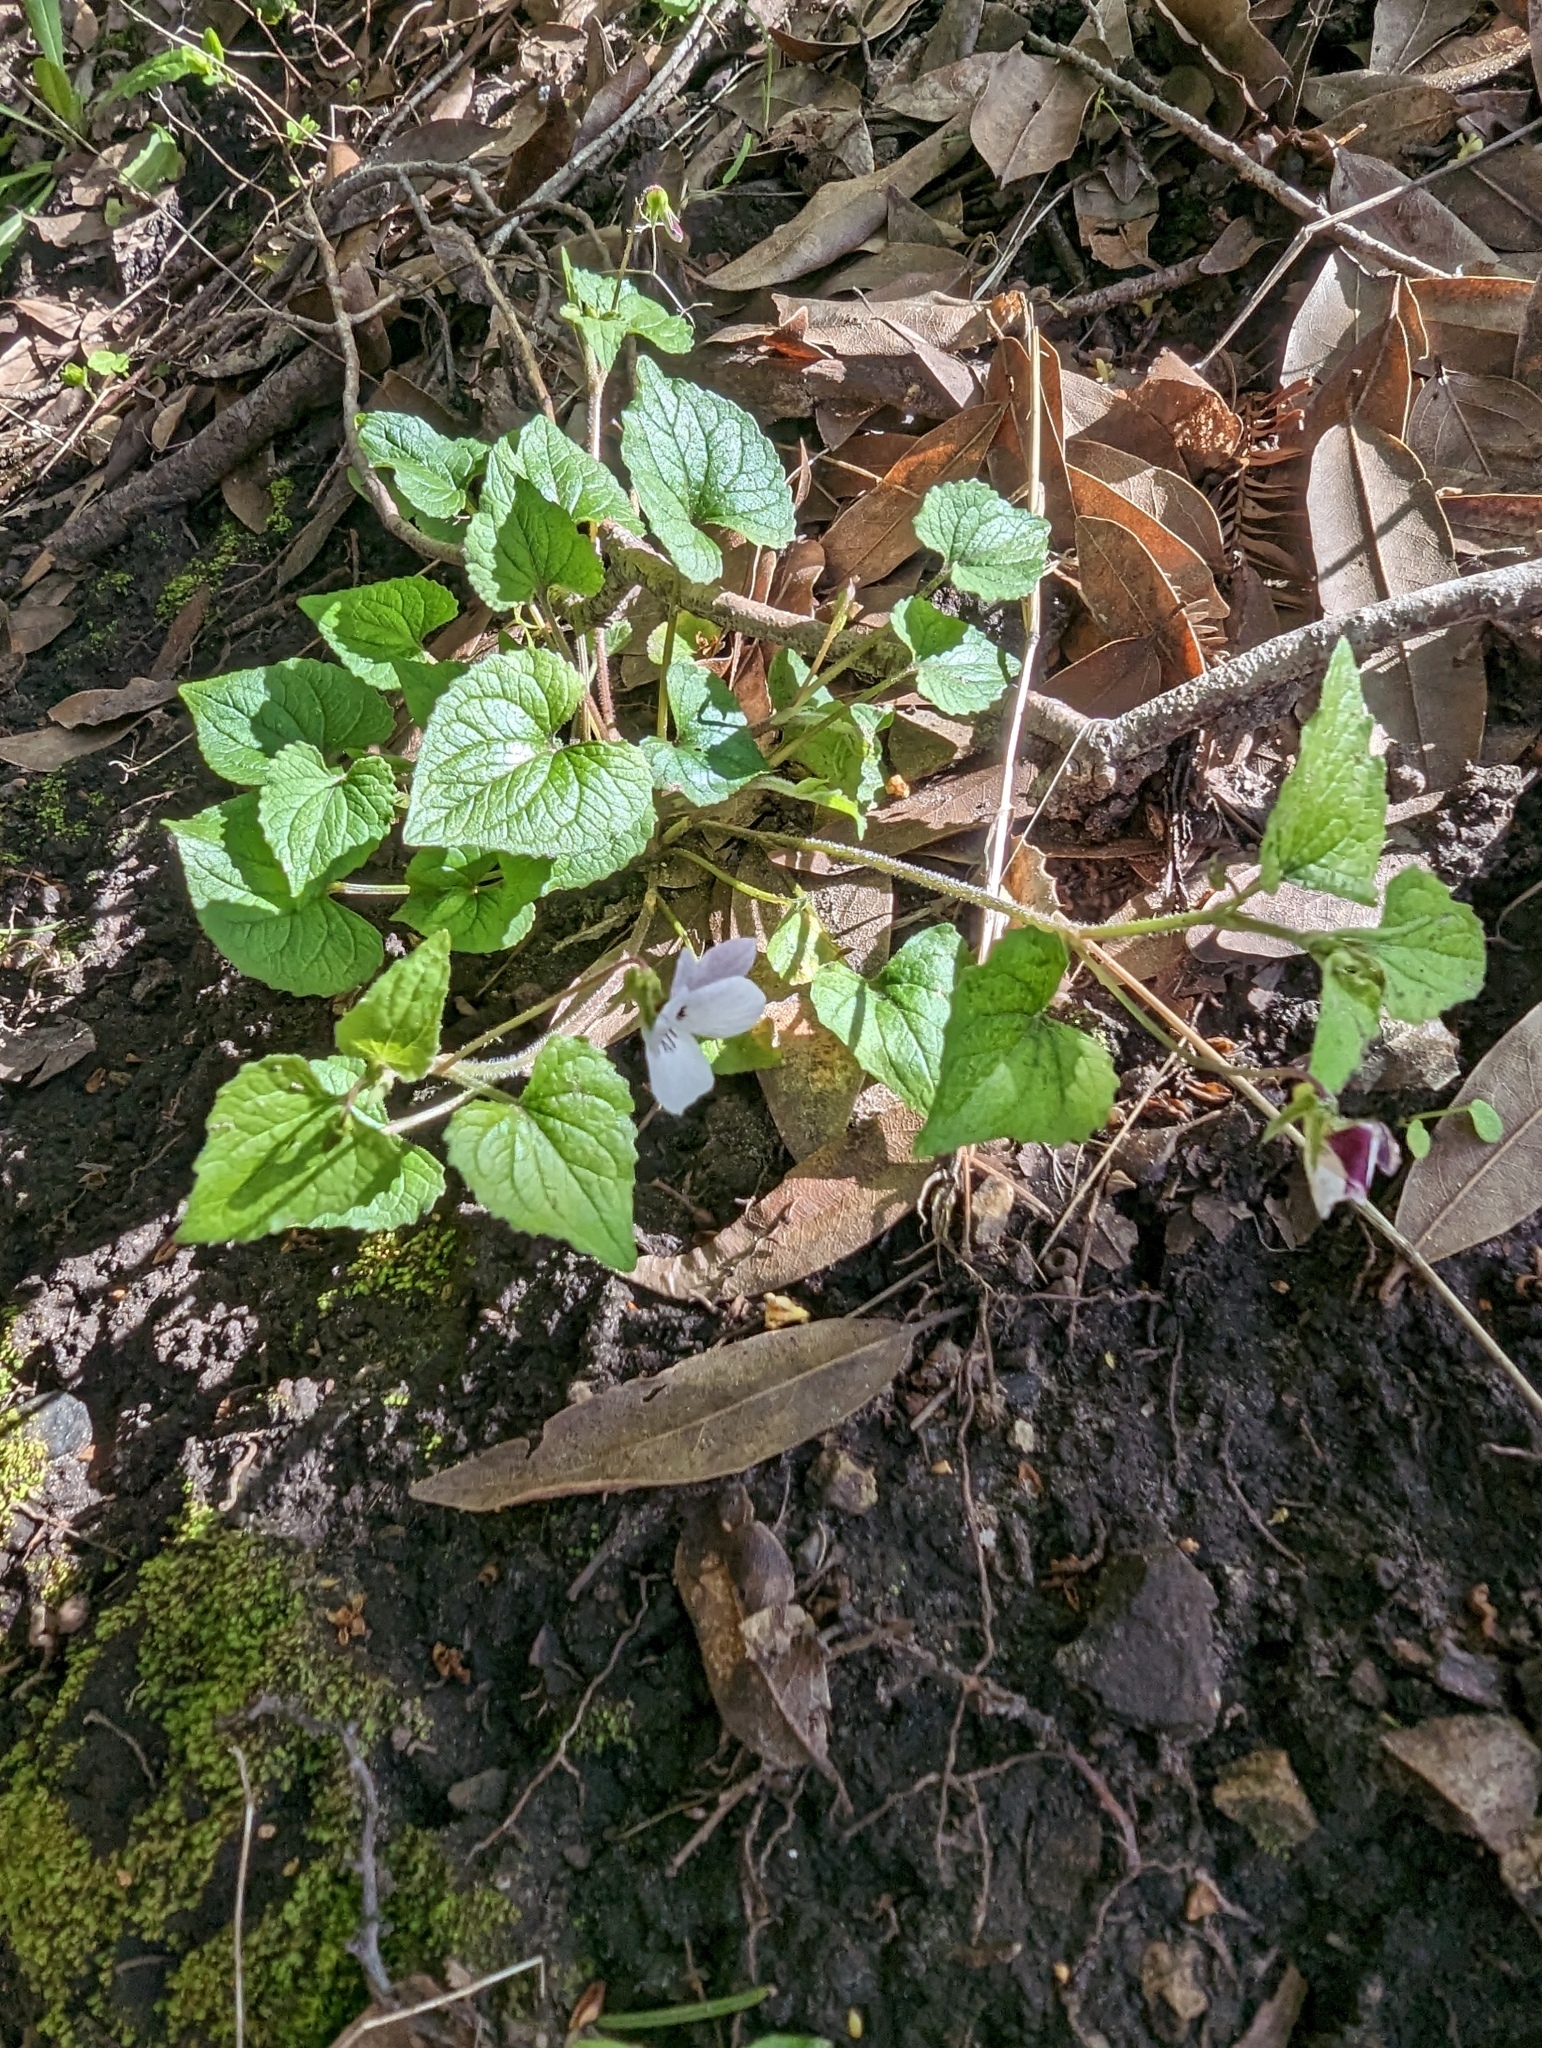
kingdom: Plantae
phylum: Tracheophyta
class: Magnoliopsida
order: Malpighiales
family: Violaceae
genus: Viola
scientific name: Viola ocellata
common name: Western heart's ease
